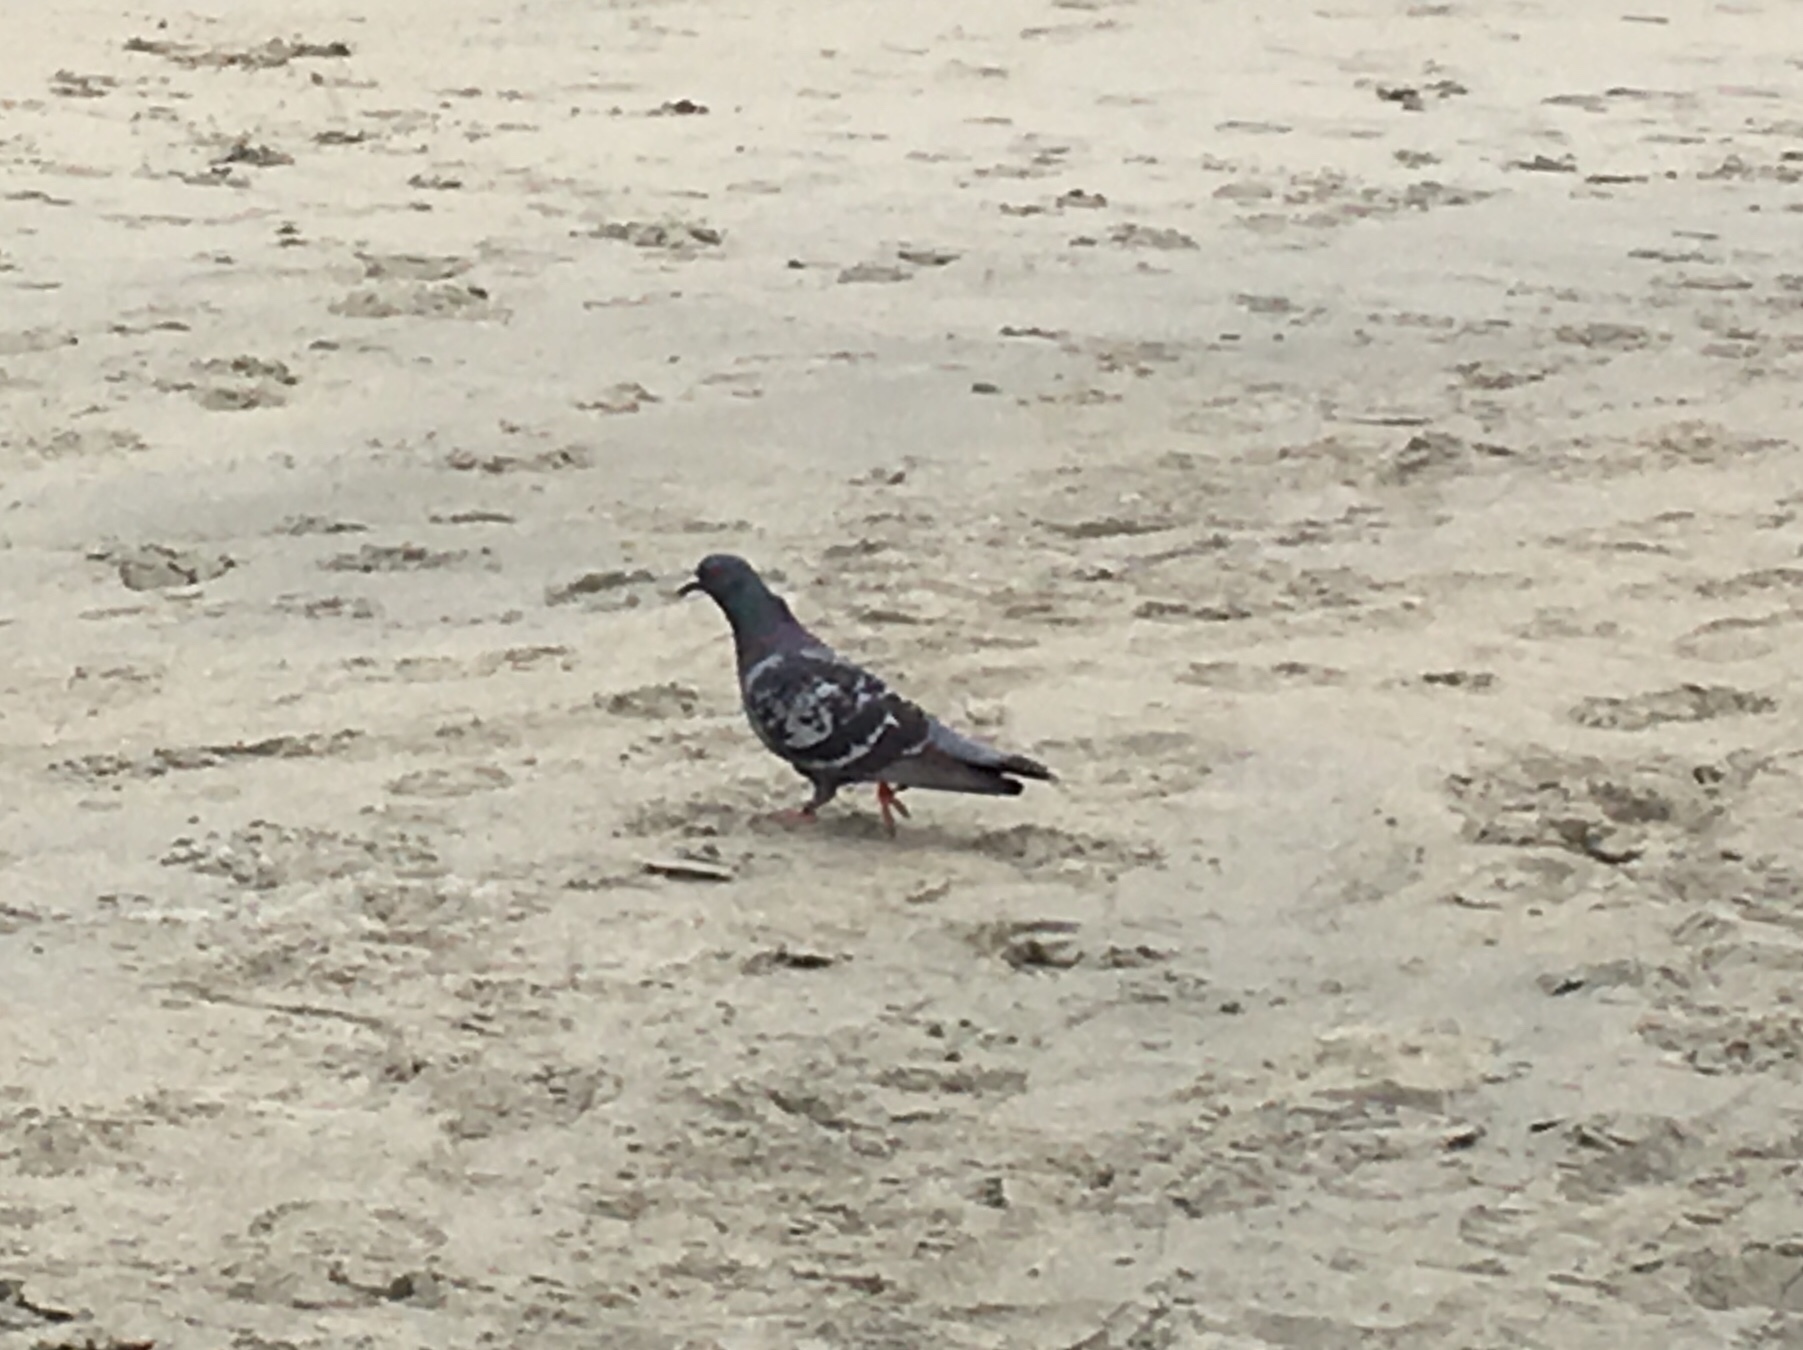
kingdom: Animalia
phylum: Chordata
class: Aves
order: Columbiformes
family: Columbidae
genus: Columba
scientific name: Columba livia
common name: Rock pigeon
